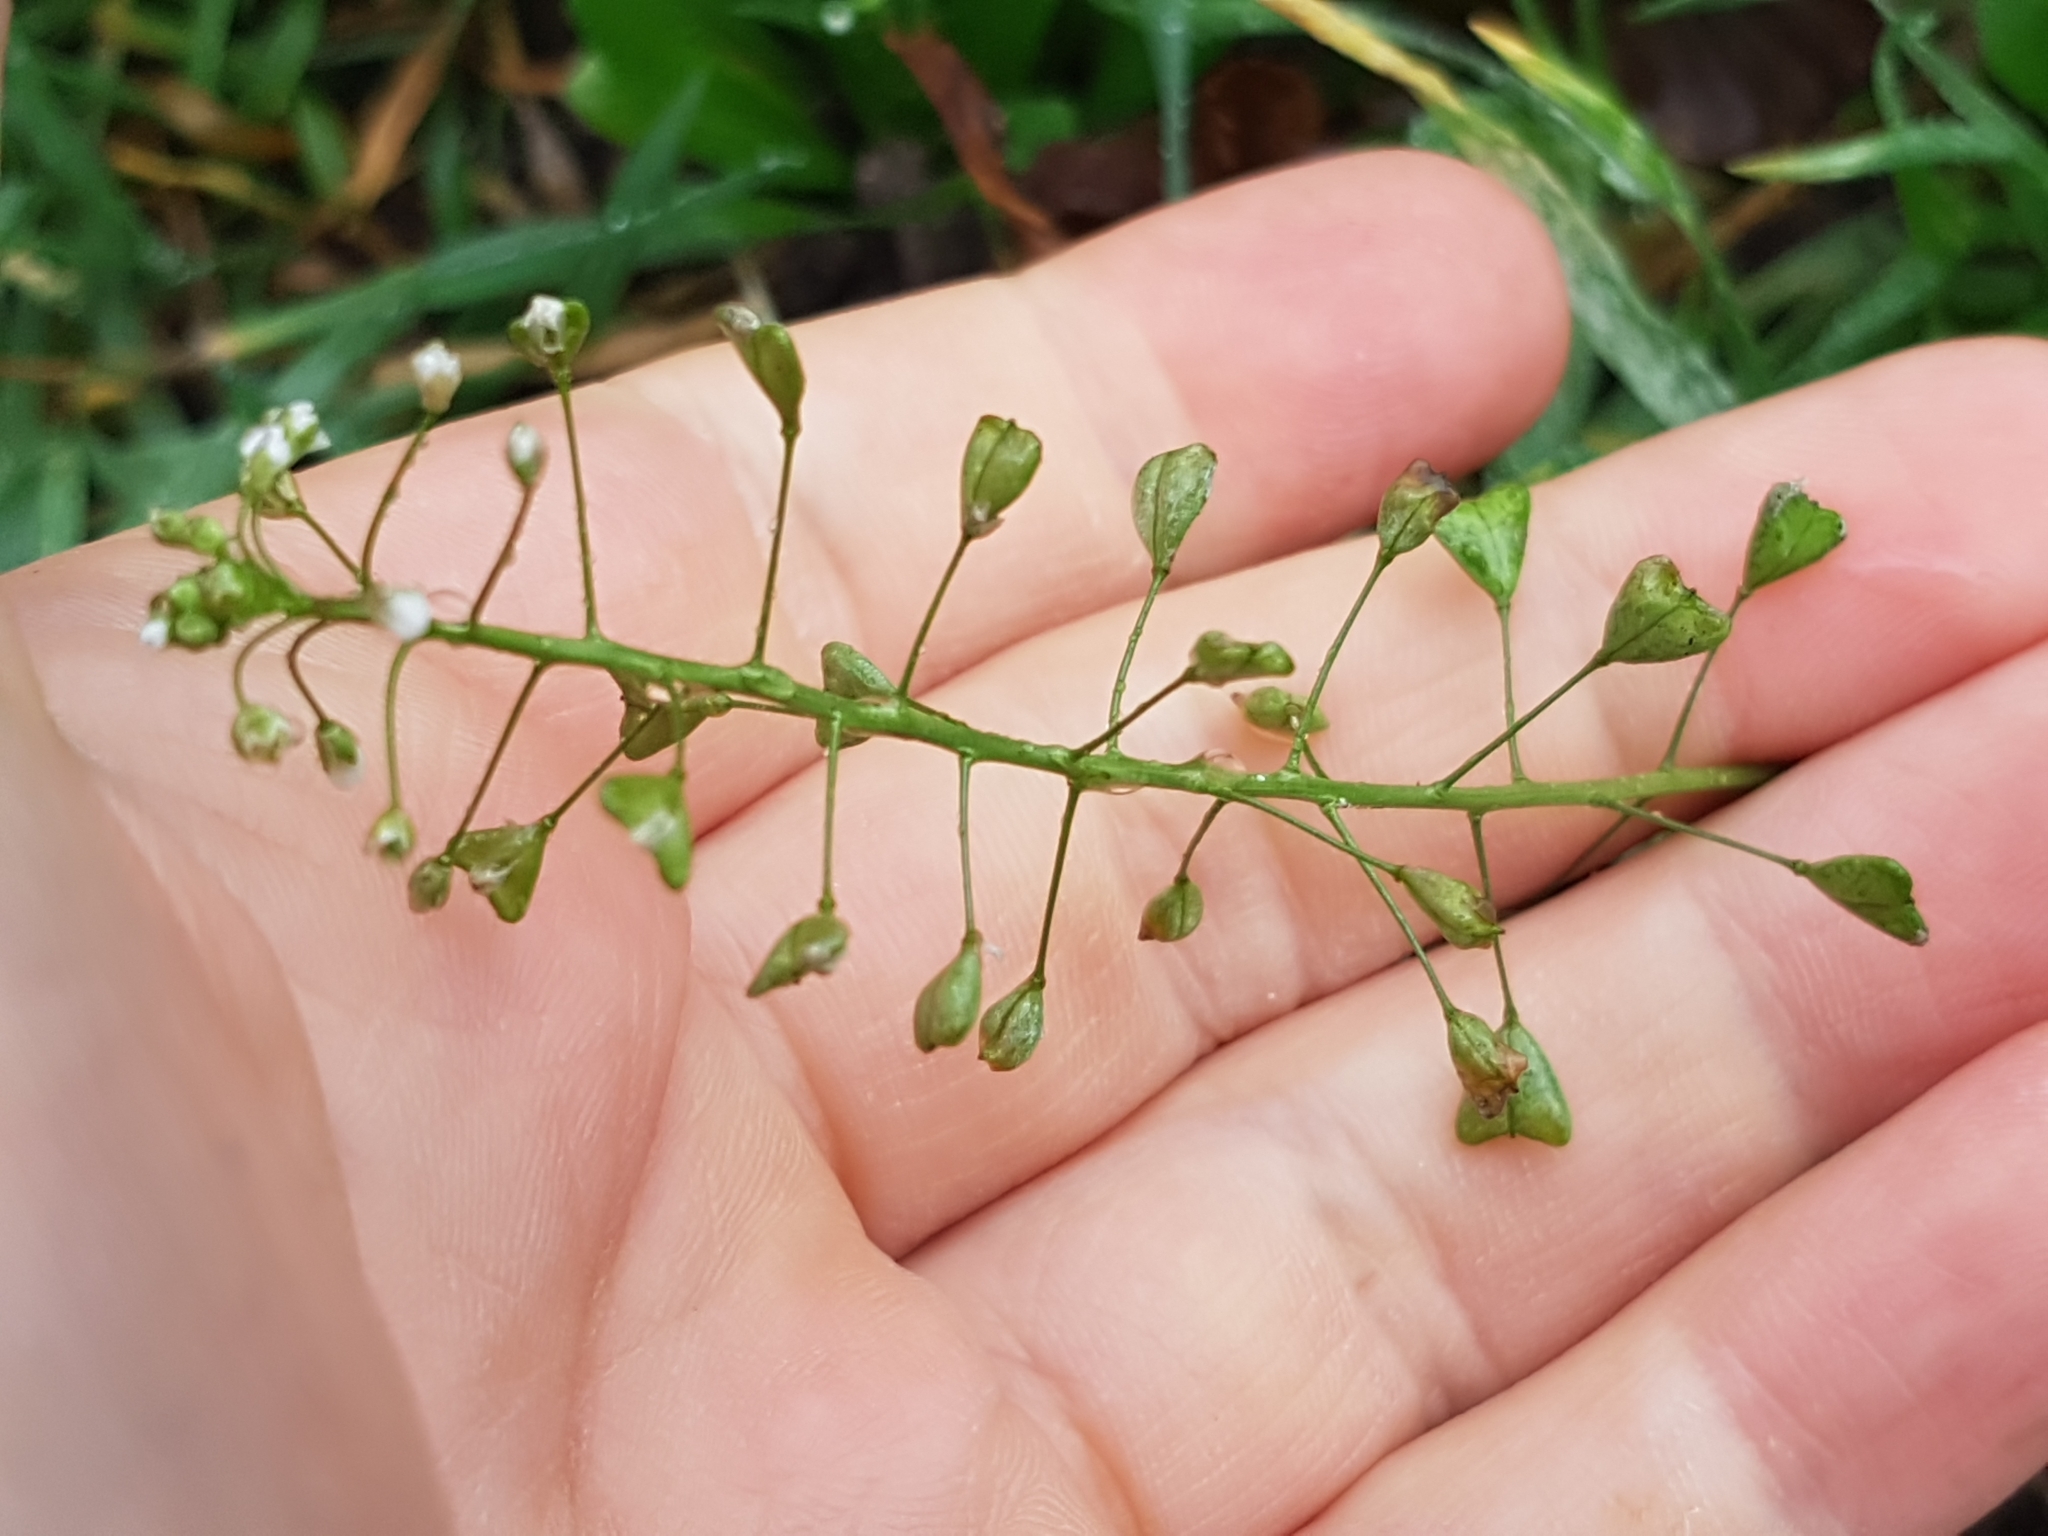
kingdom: Plantae
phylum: Tracheophyta
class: Magnoliopsida
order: Brassicales
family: Brassicaceae
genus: Capsella
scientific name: Capsella bursa-pastoris
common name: Shepherd's purse
